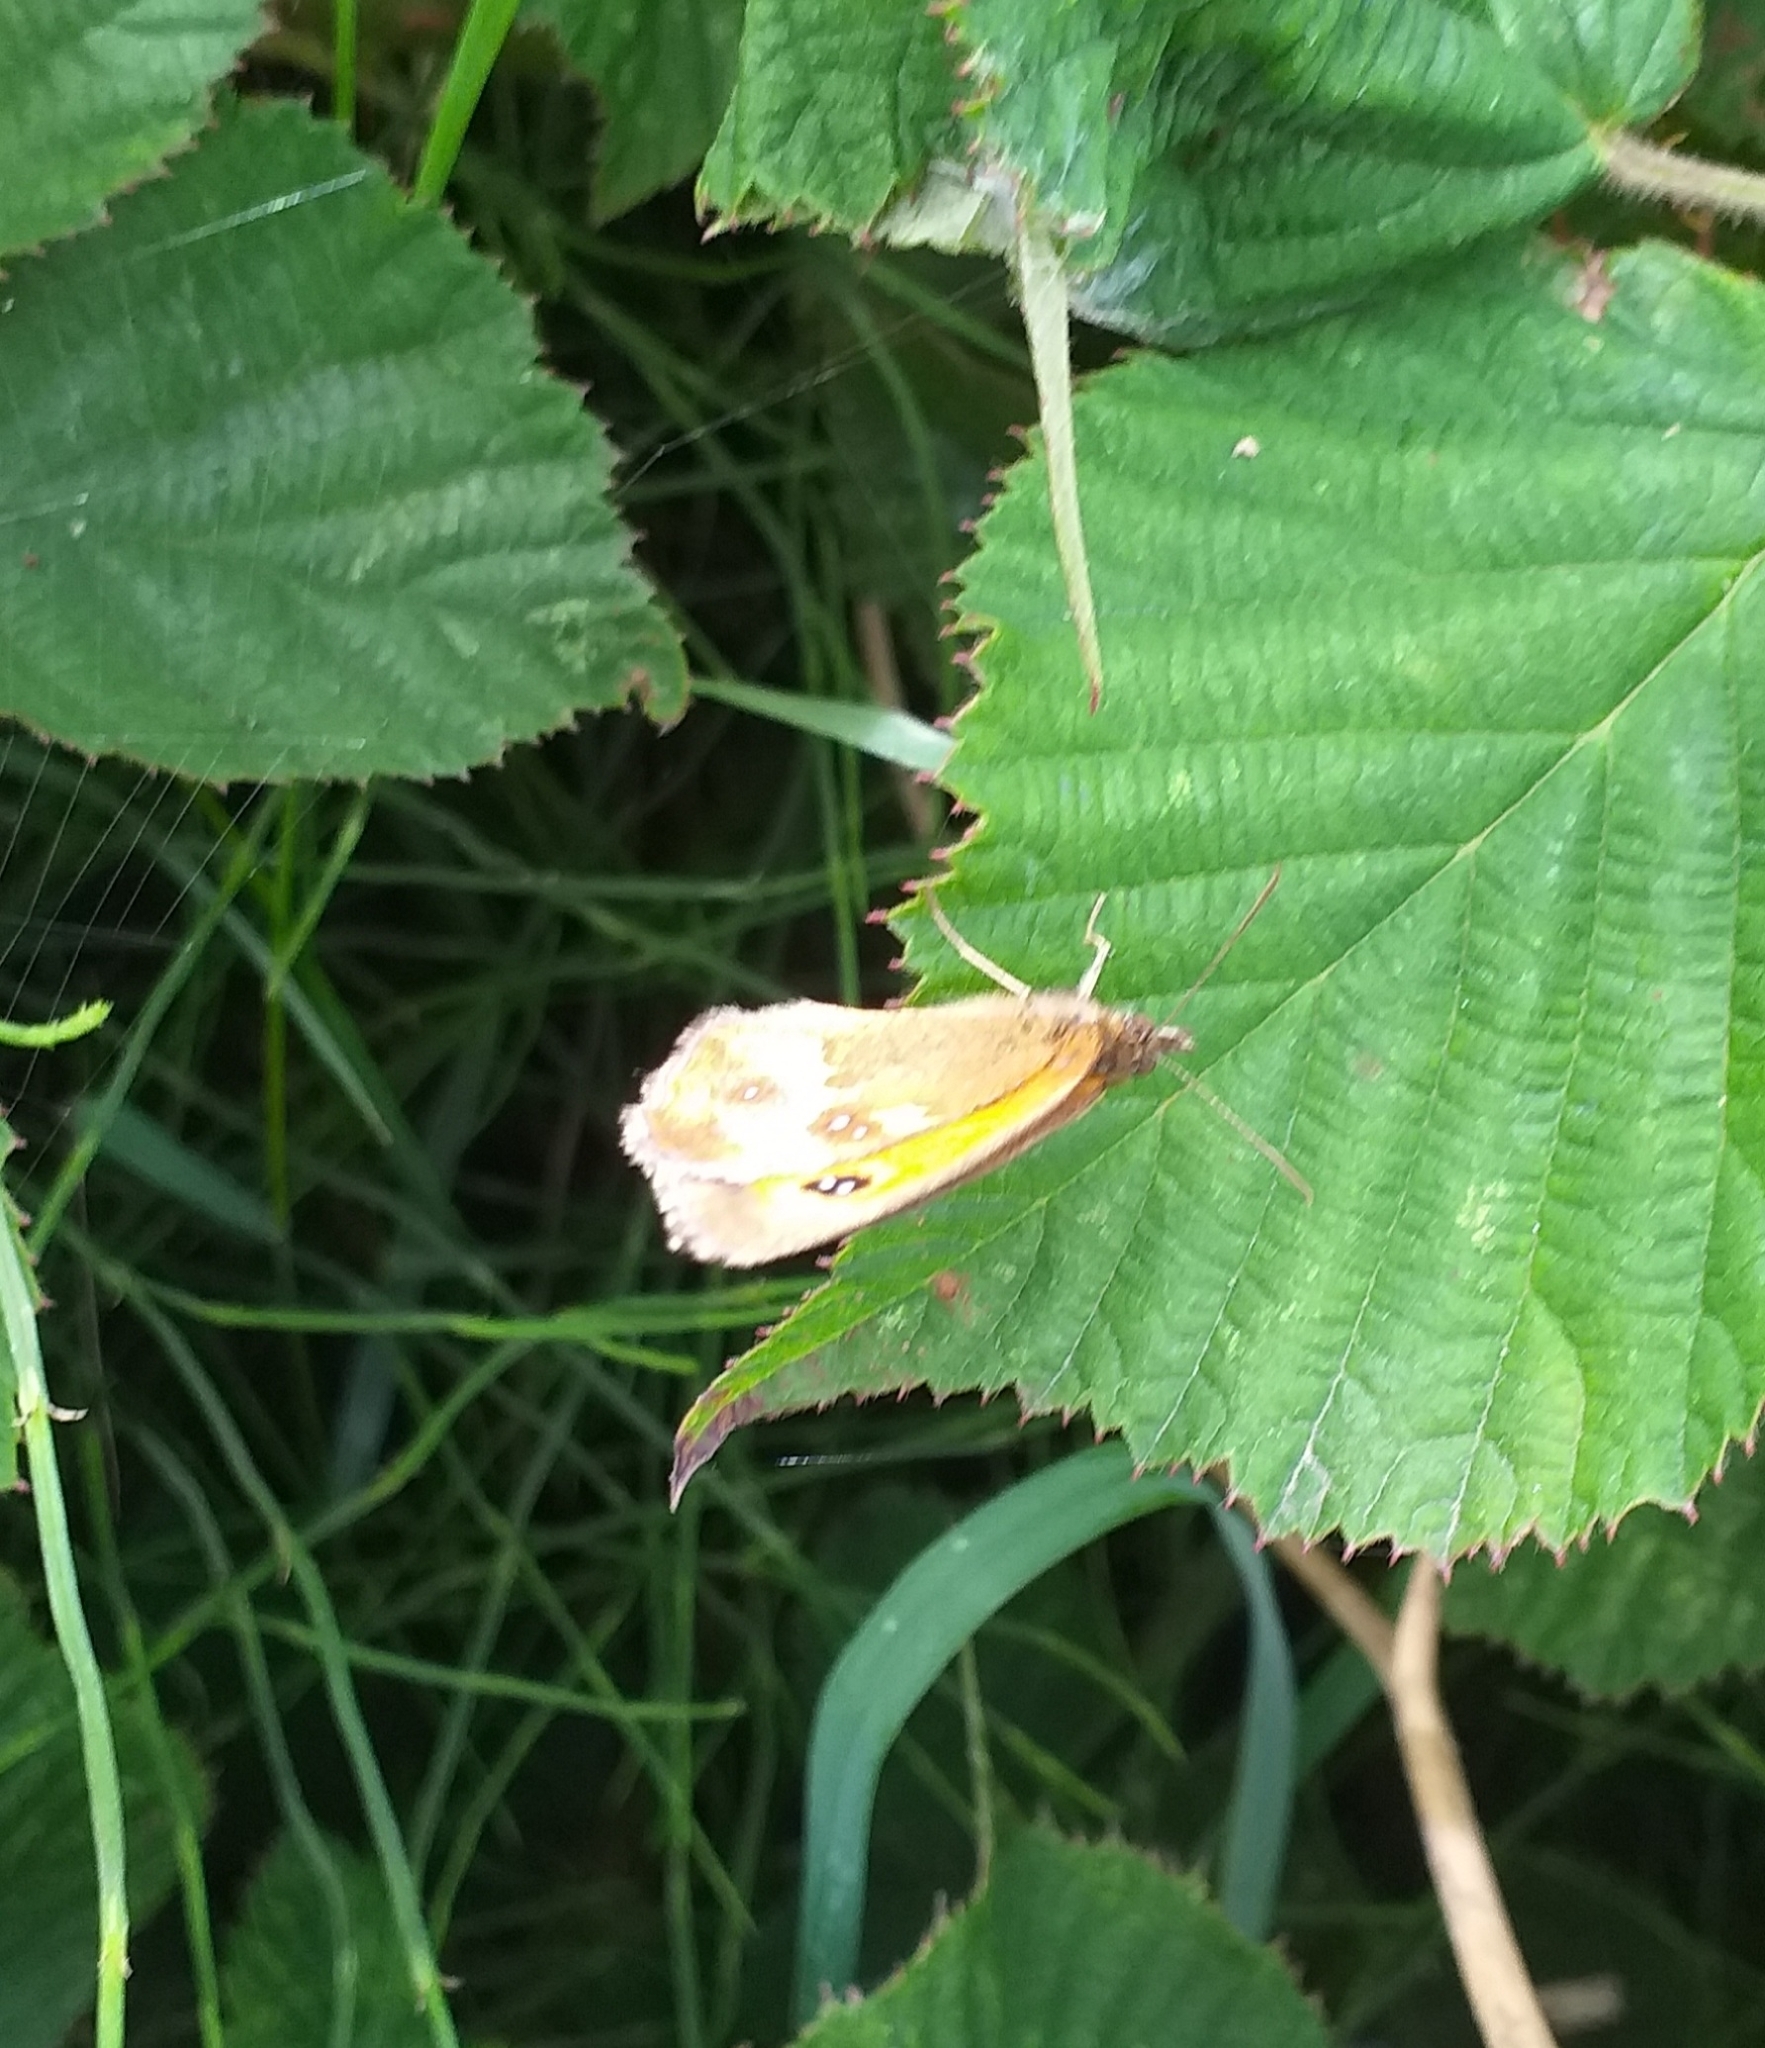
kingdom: Animalia
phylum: Arthropoda
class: Insecta
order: Lepidoptera
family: Nymphalidae
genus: Pyronia
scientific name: Pyronia tithonus
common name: Gatekeeper
